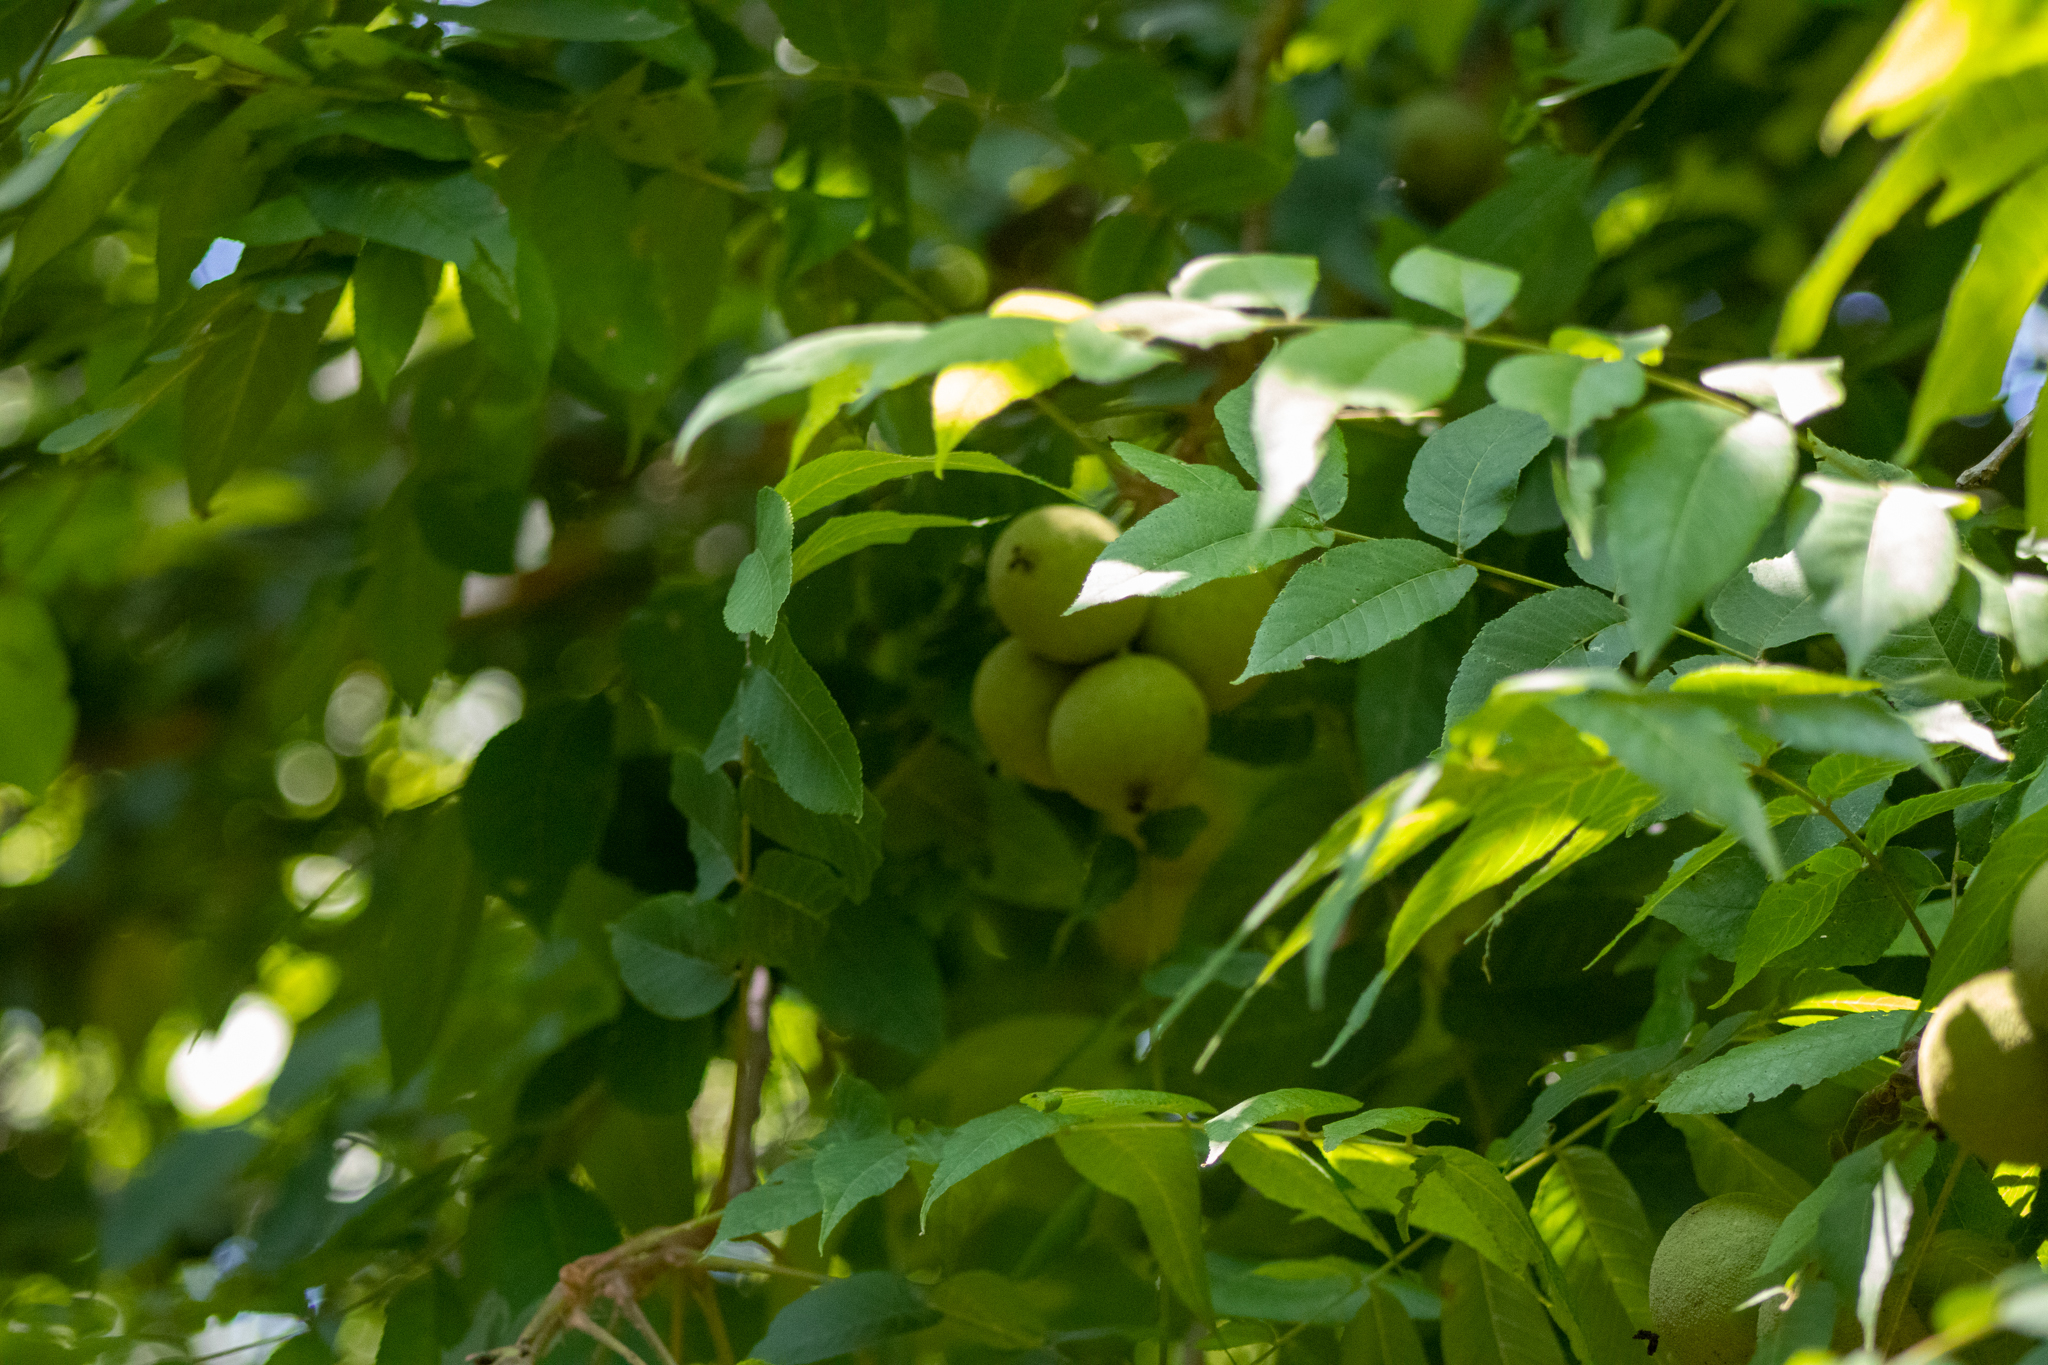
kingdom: Plantae
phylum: Tracheophyta
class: Magnoliopsida
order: Fagales
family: Juglandaceae
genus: Juglans
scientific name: Juglans nigra
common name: Black walnut
